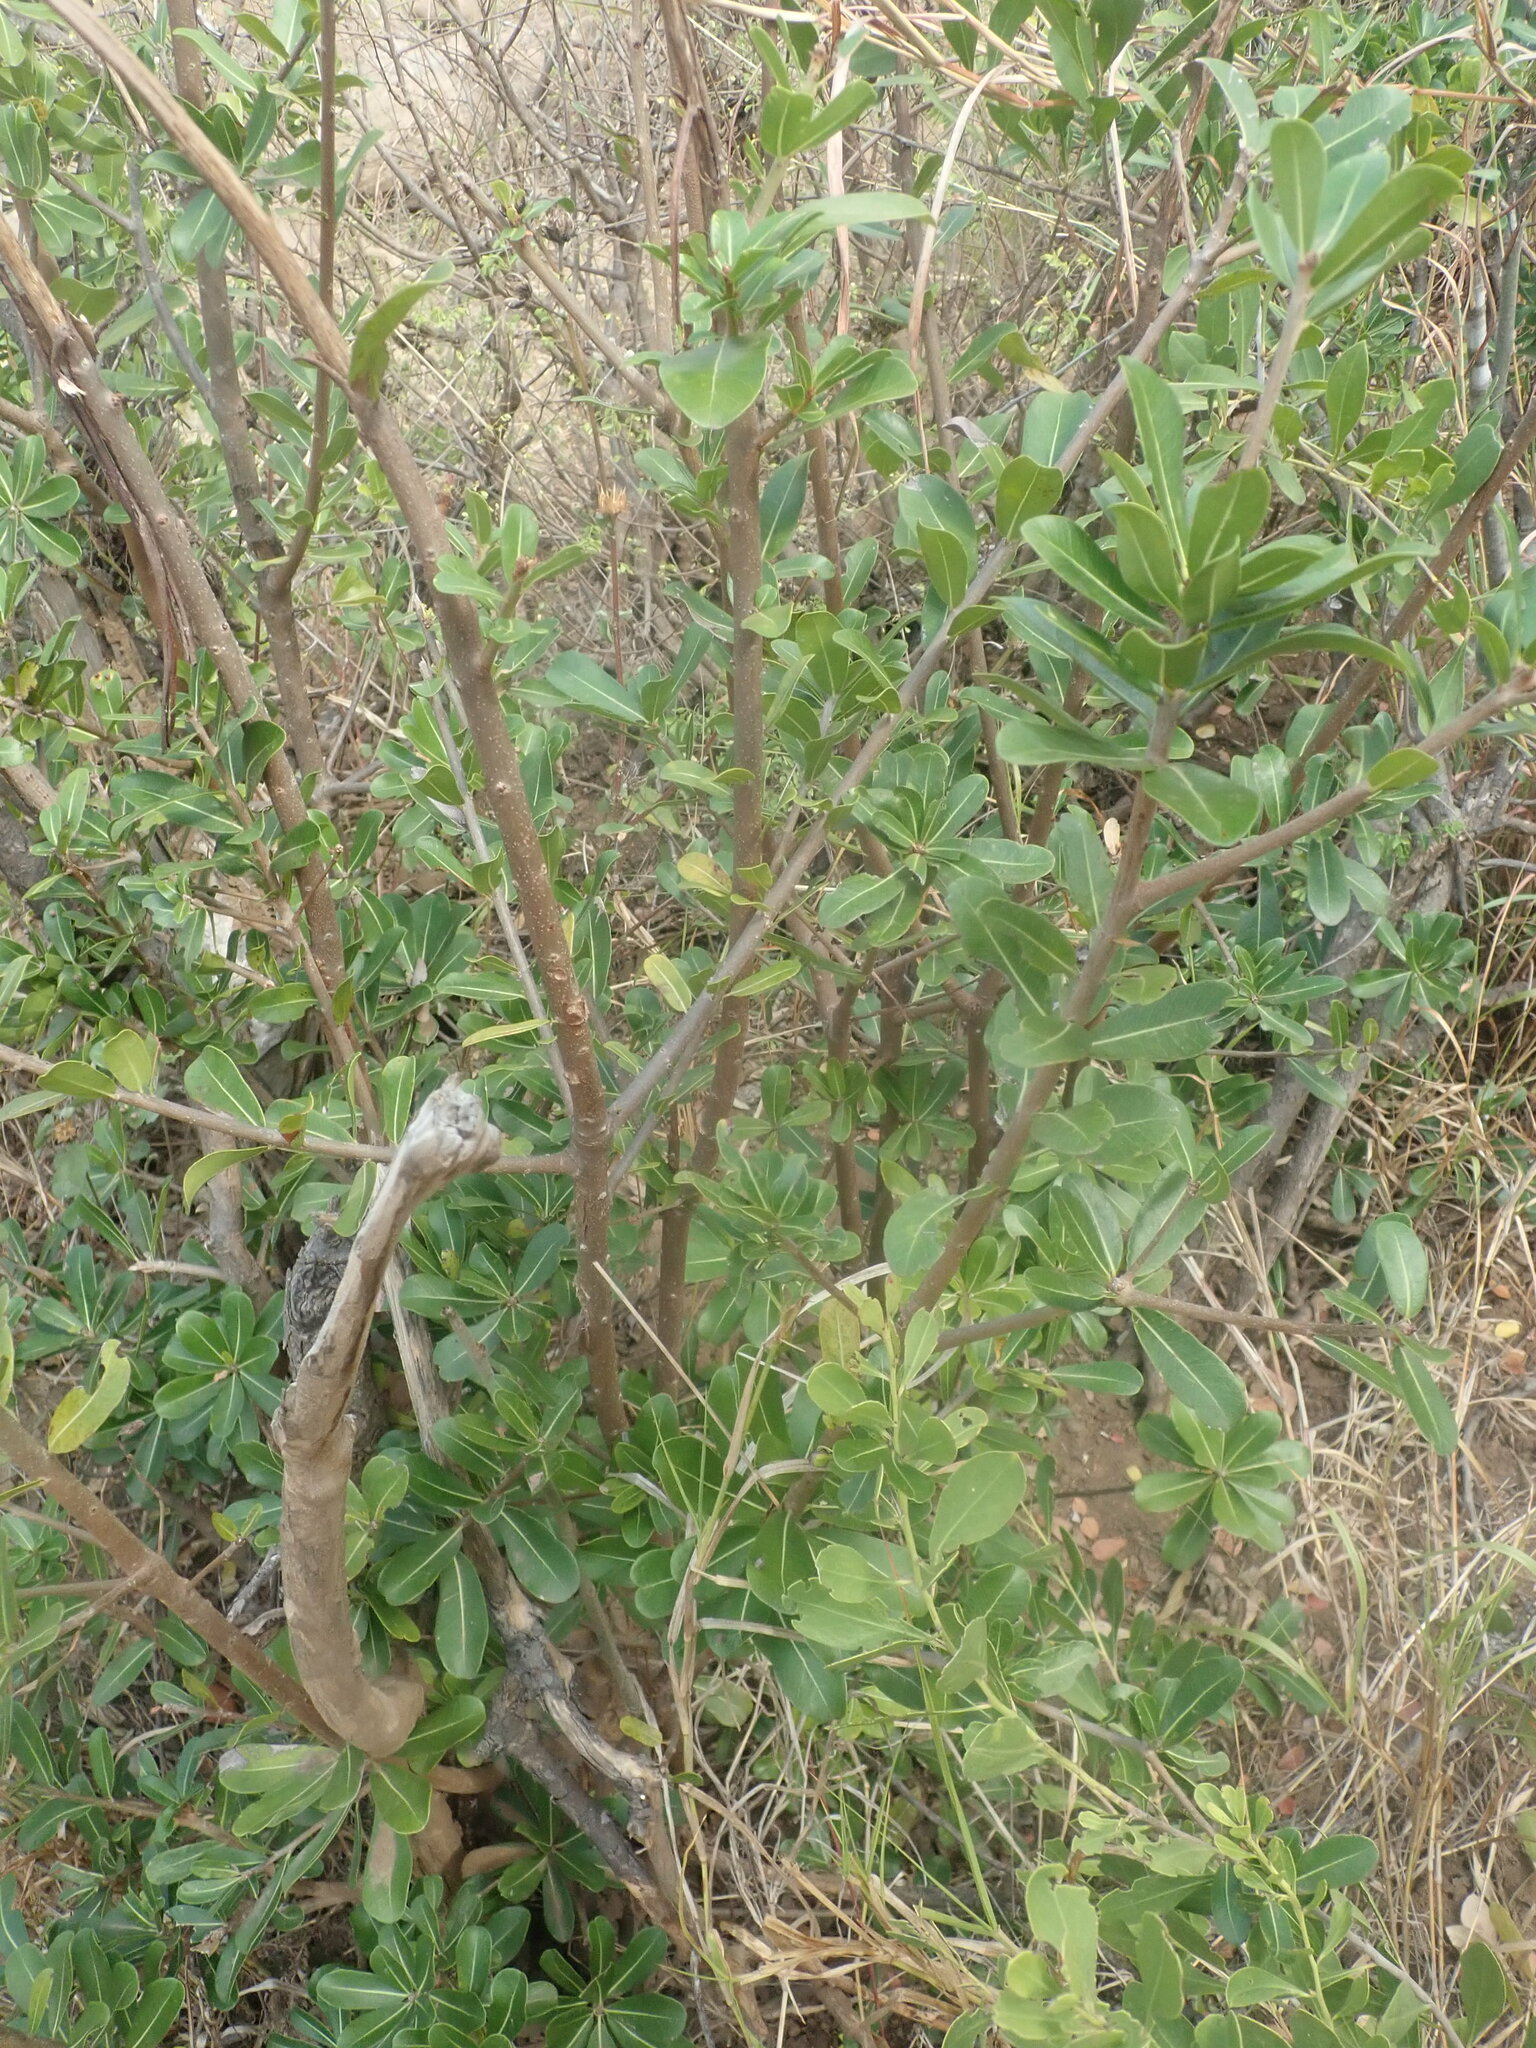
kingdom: Plantae
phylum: Tracheophyta
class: Magnoliopsida
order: Sapindales
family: Sapindaceae
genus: Pappea
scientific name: Pappea capensis
